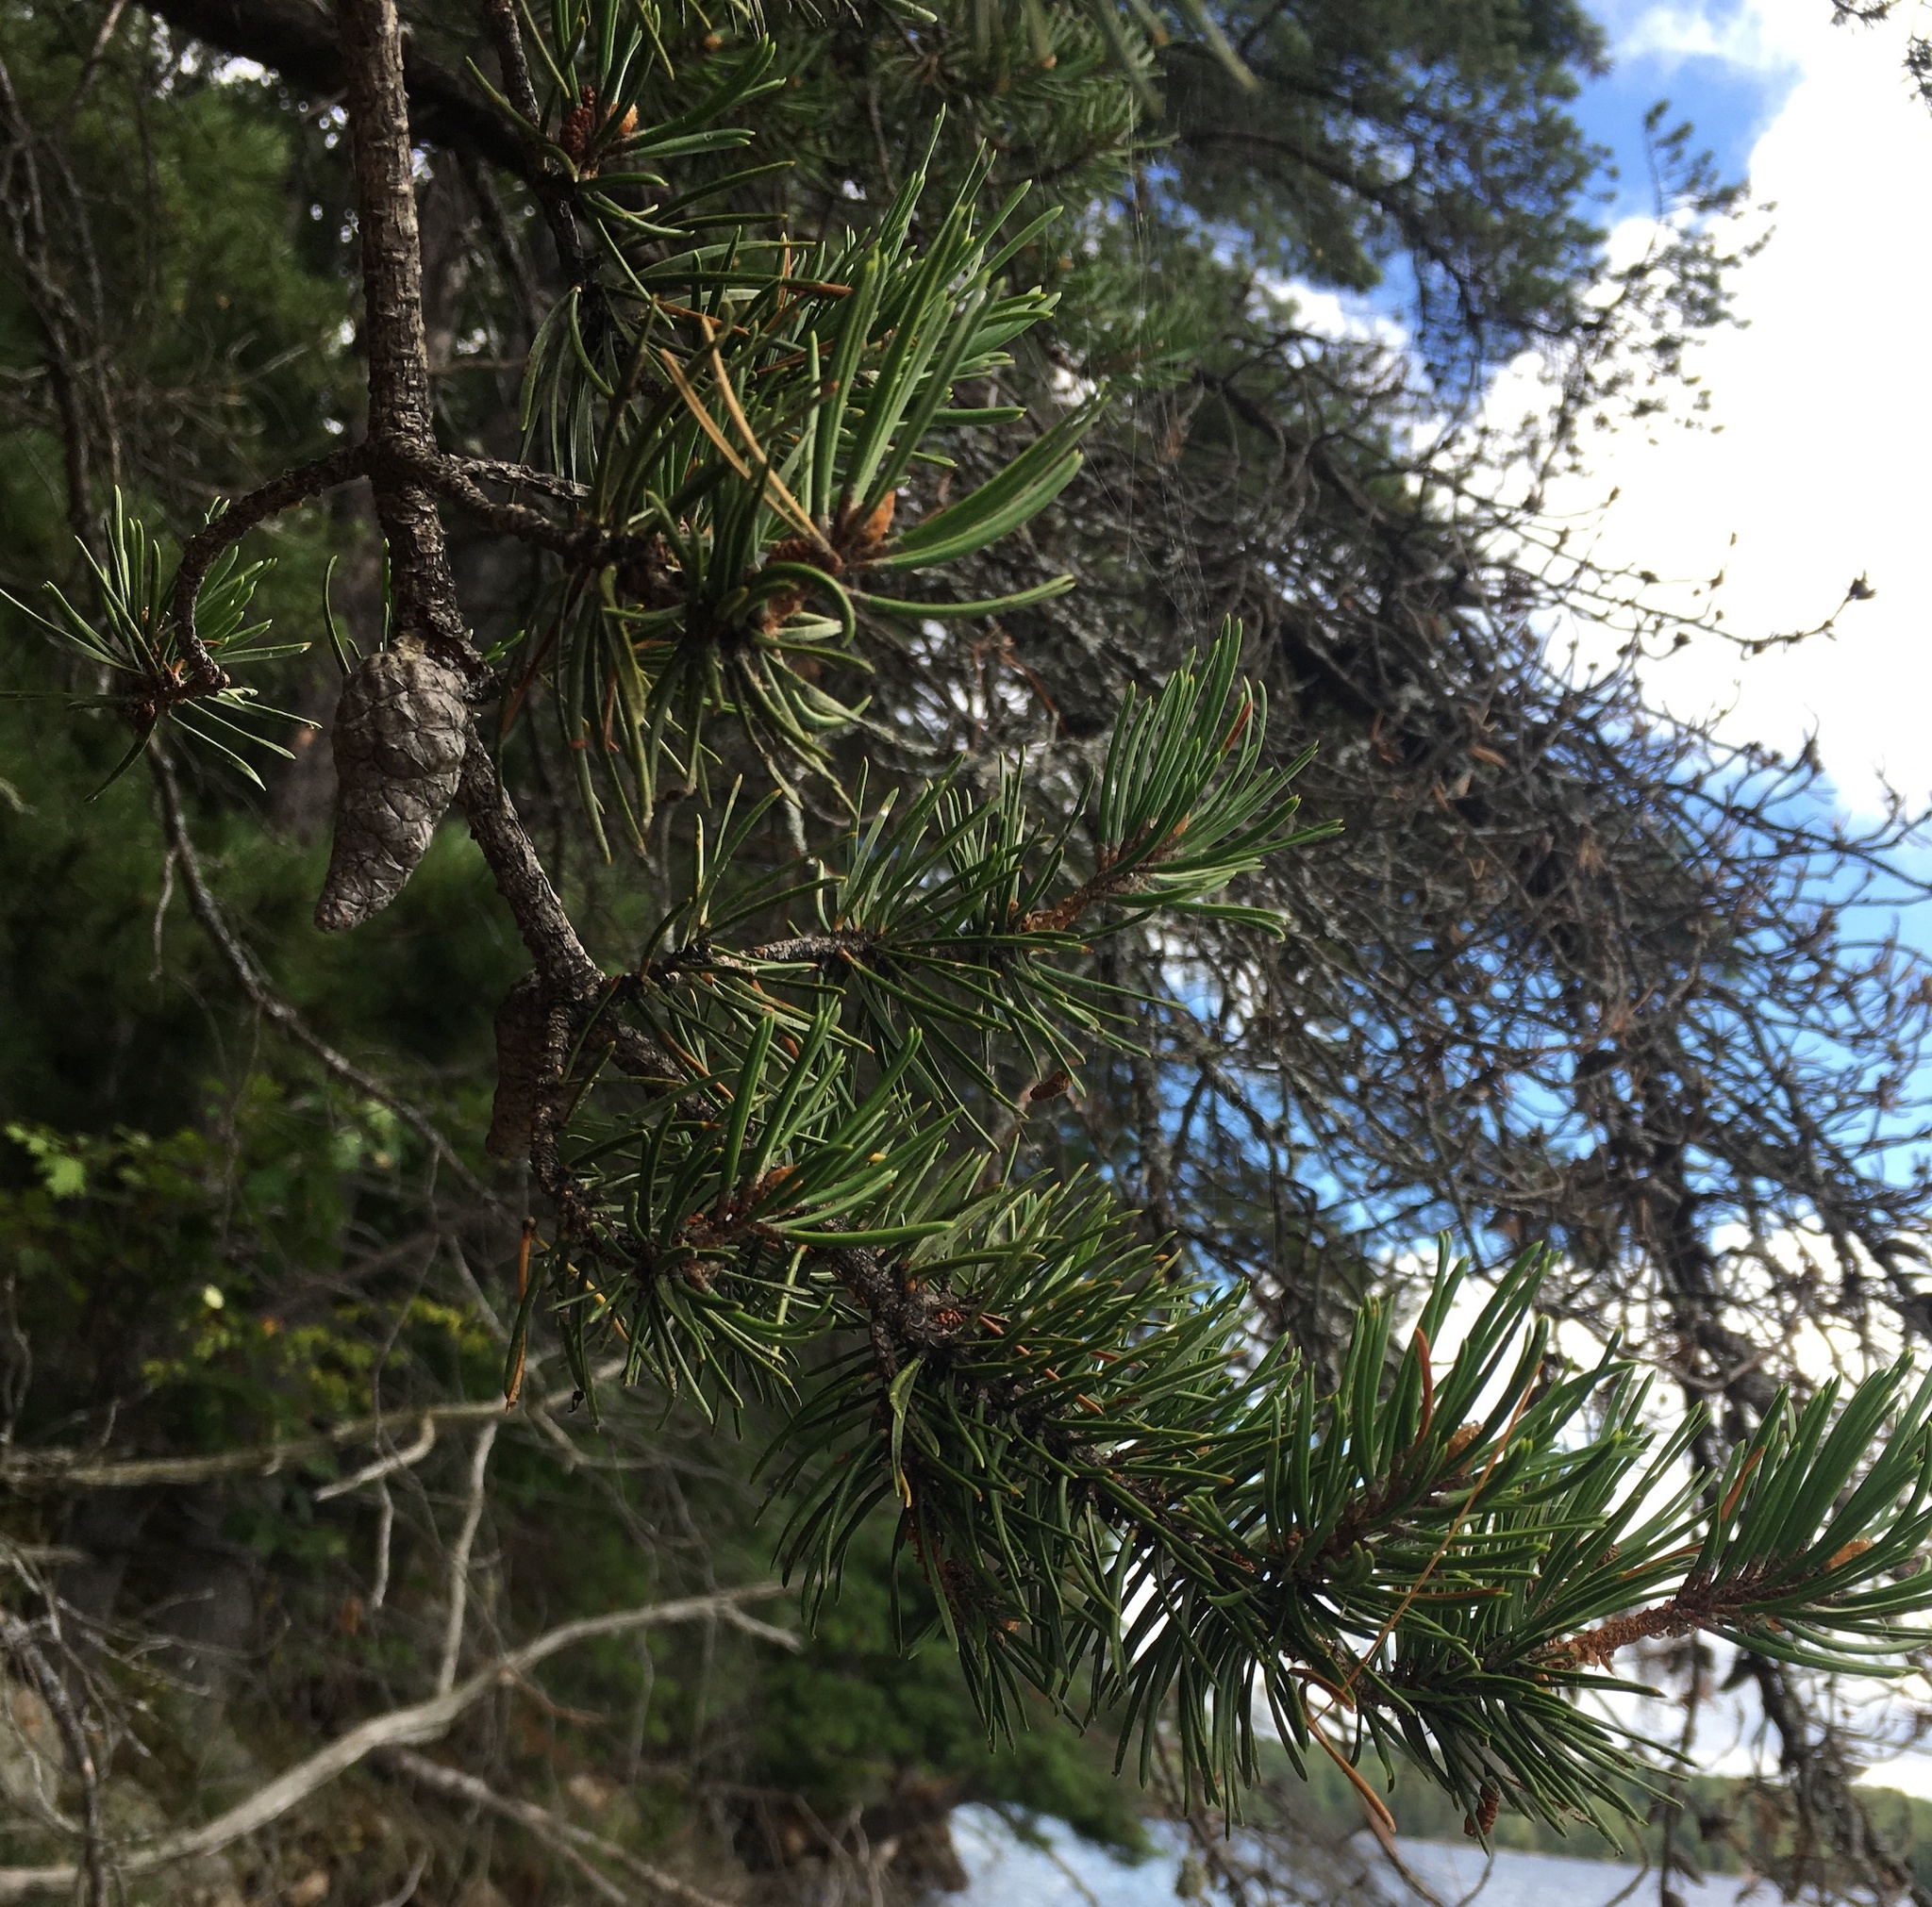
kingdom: Plantae
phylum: Tracheophyta
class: Pinopsida
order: Pinales
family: Pinaceae
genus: Pinus
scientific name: Pinus banksiana
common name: Jack pine
